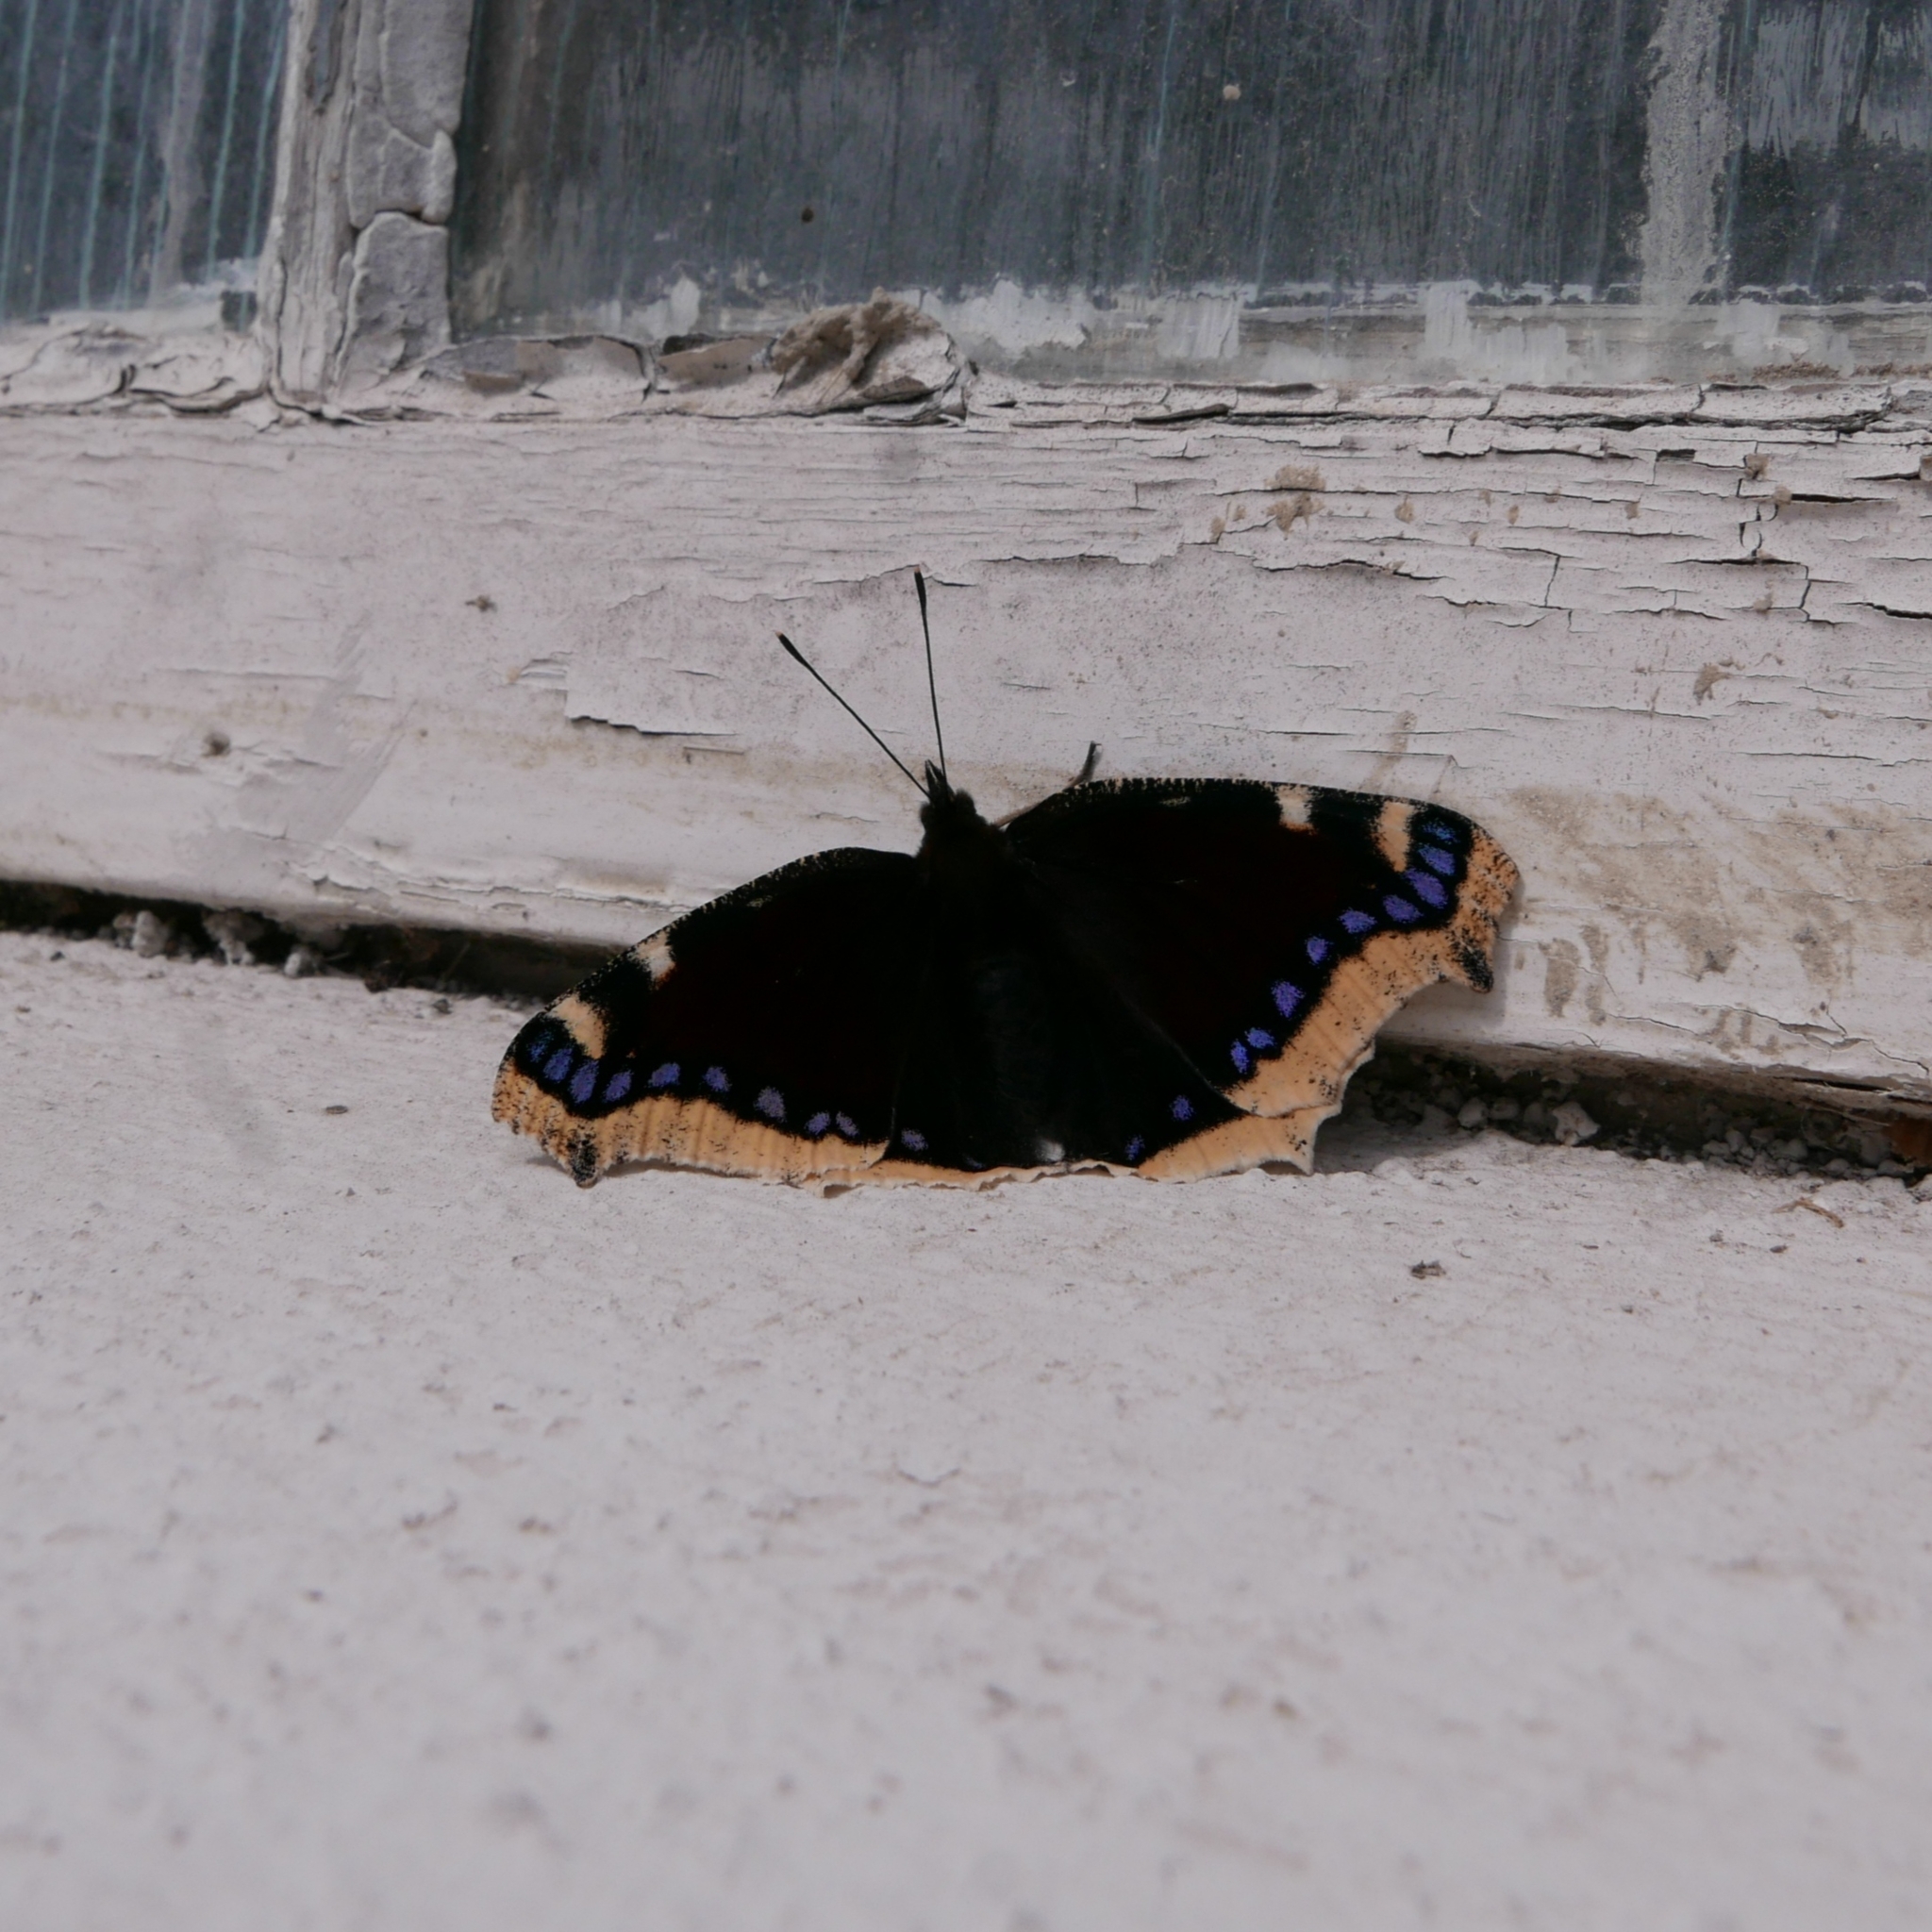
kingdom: Animalia
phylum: Arthropoda
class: Insecta
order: Lepidoptera
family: Nymphalidae
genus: Nymphalis
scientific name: Nymphalis antiopa
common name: Camberwell beauty
